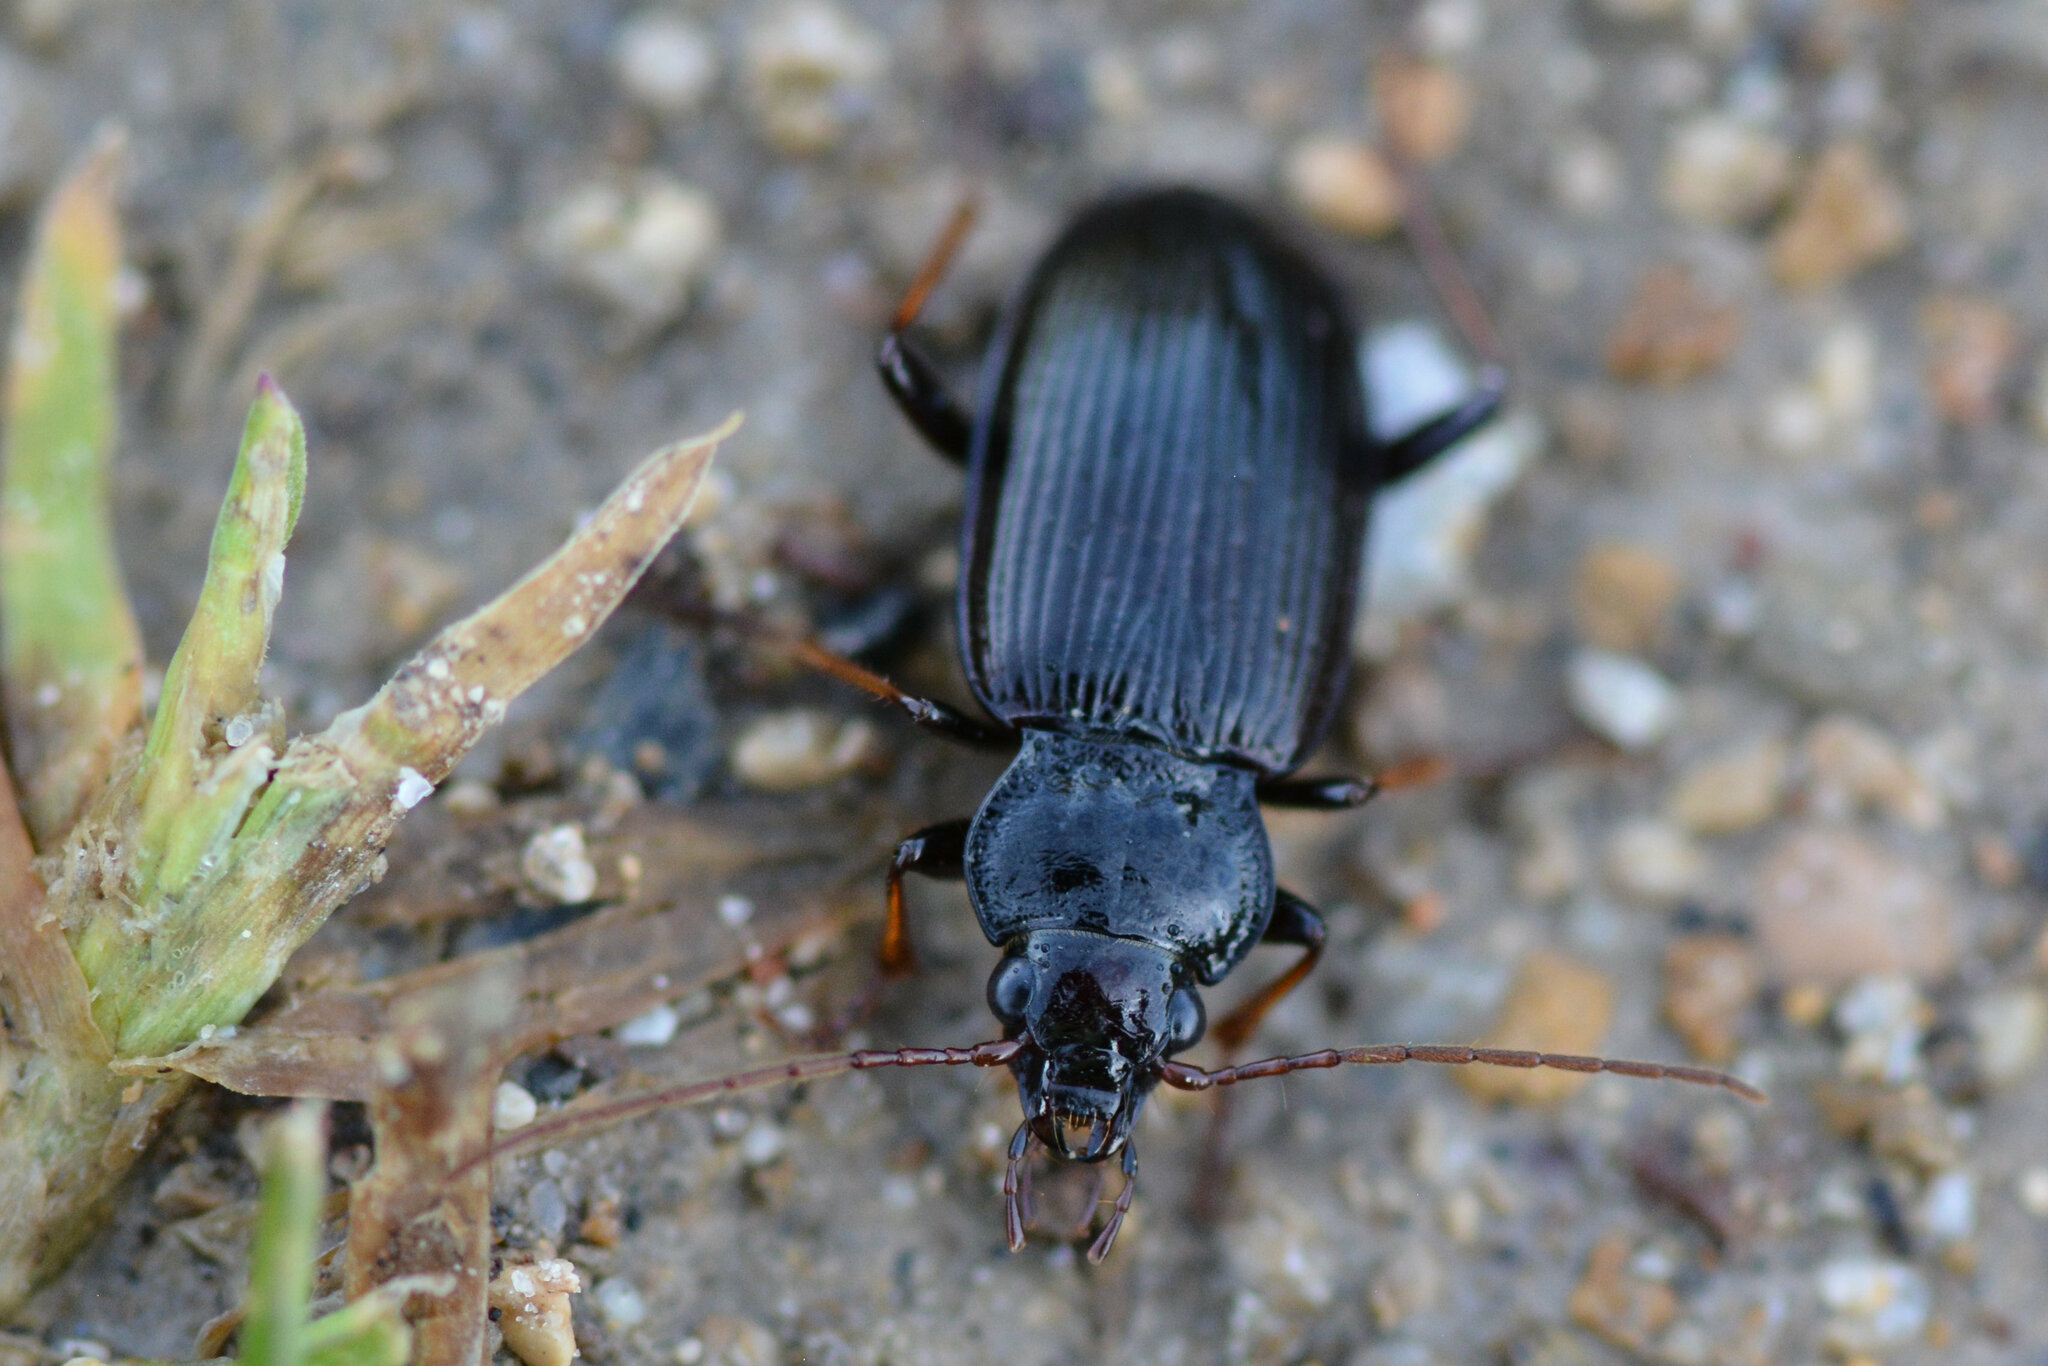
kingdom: Animalia
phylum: Arthropoda
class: Insecta
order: Coleoptera
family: Carabidae
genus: Nebria
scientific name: Nebria salina
